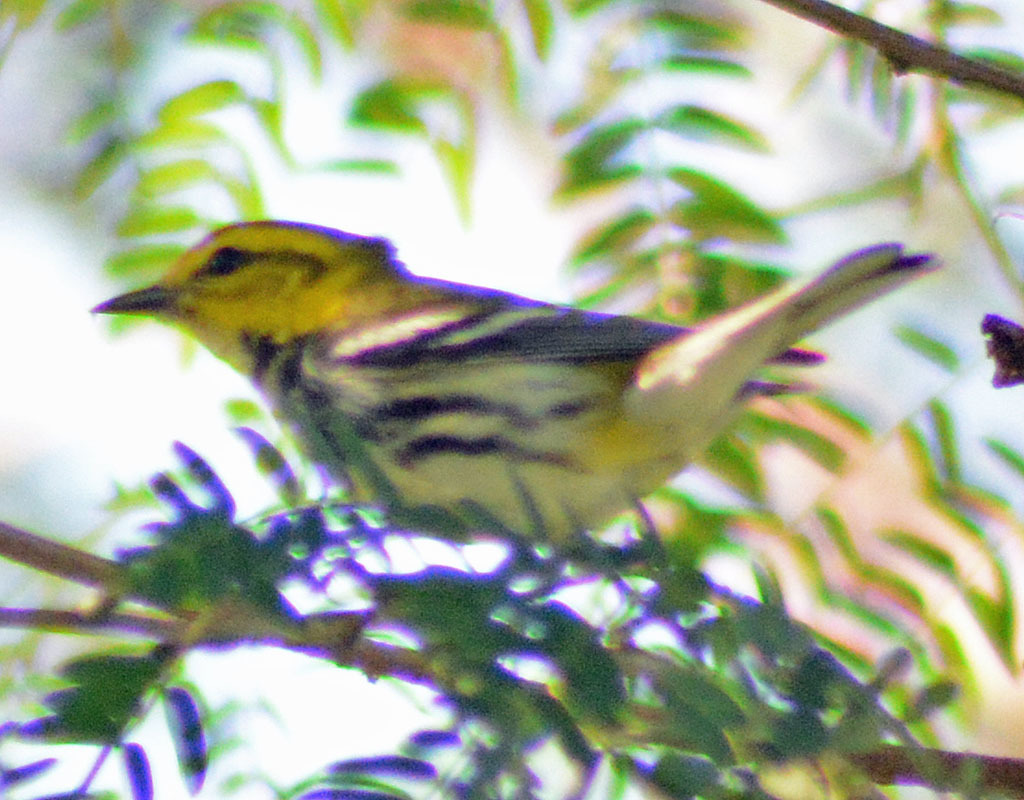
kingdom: Animalia
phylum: Chordata
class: Aves
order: Passeriformes
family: Parulidae
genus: Setophaga
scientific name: Setophaga virens
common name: Black-throated green warbler
